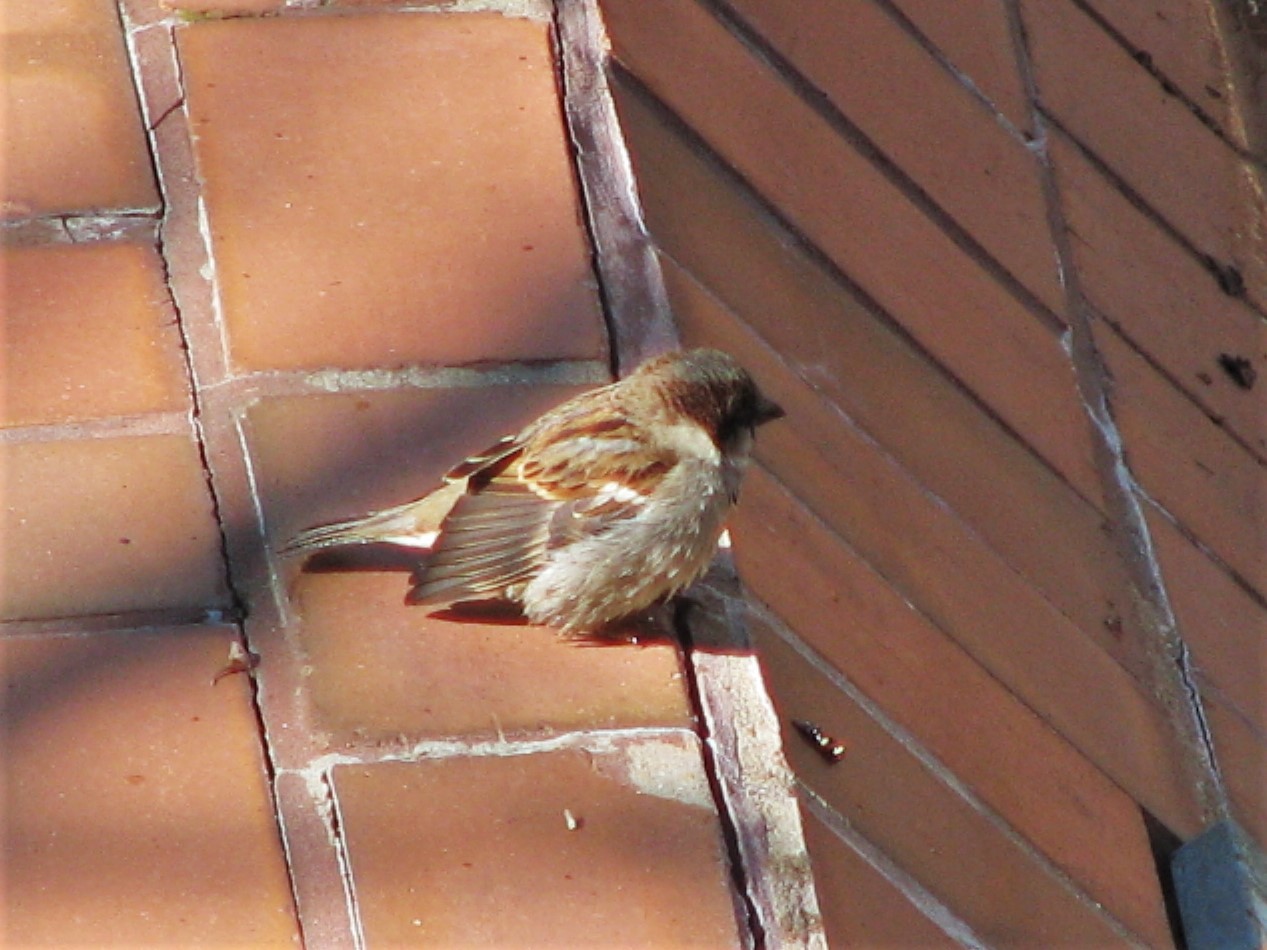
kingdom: Animalia
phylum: Chordata
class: Aves
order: Passeriformes
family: Passeridae
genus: Passer
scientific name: Passer domesticus
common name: House sparrow
